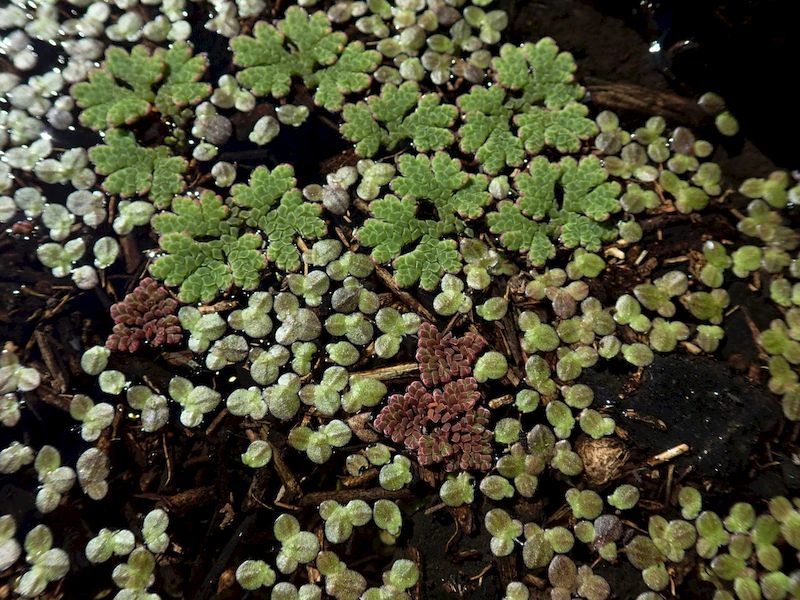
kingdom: Plantae
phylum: Tracheophyta
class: Polypodiopsida
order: Salviniales
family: Salviniaceae
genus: Azolla
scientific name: Azolla rubra
